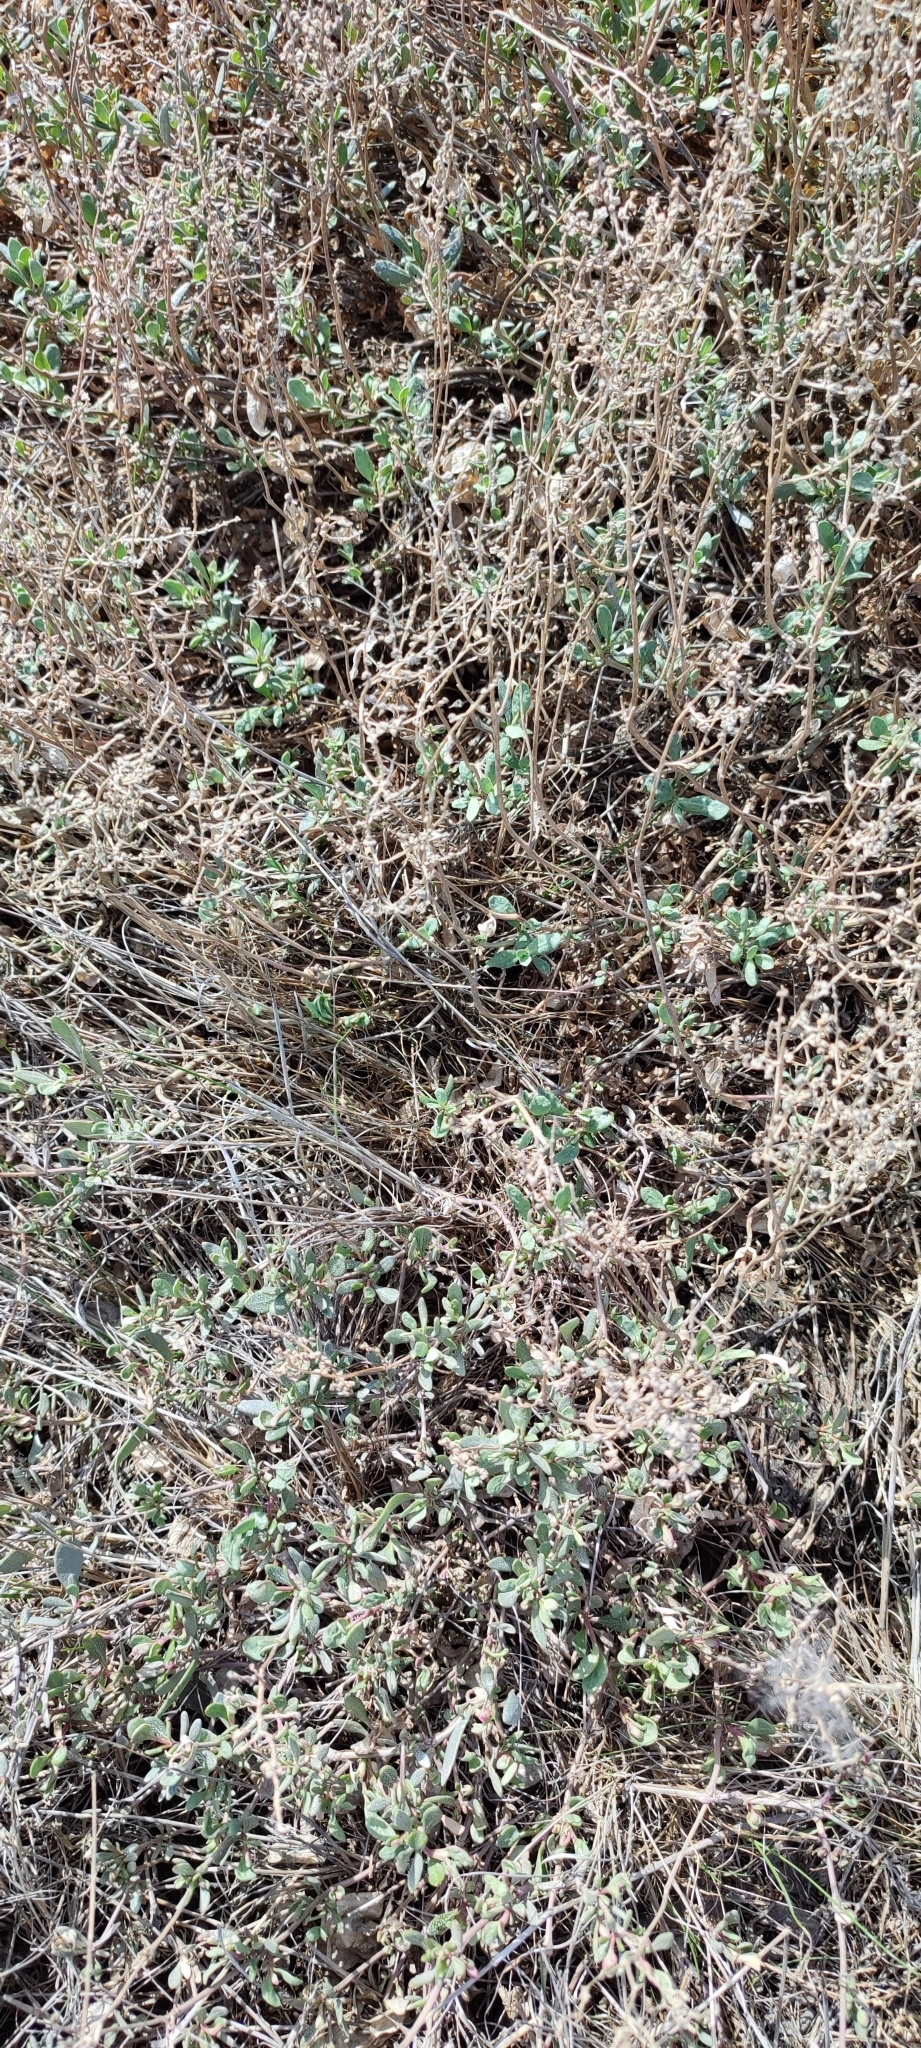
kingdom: Plantae
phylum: Tracheophyta
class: Magnoliopsida
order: Caryophyllales
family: Amaranthaceae
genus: Halimione
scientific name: Halimione verrucifera
